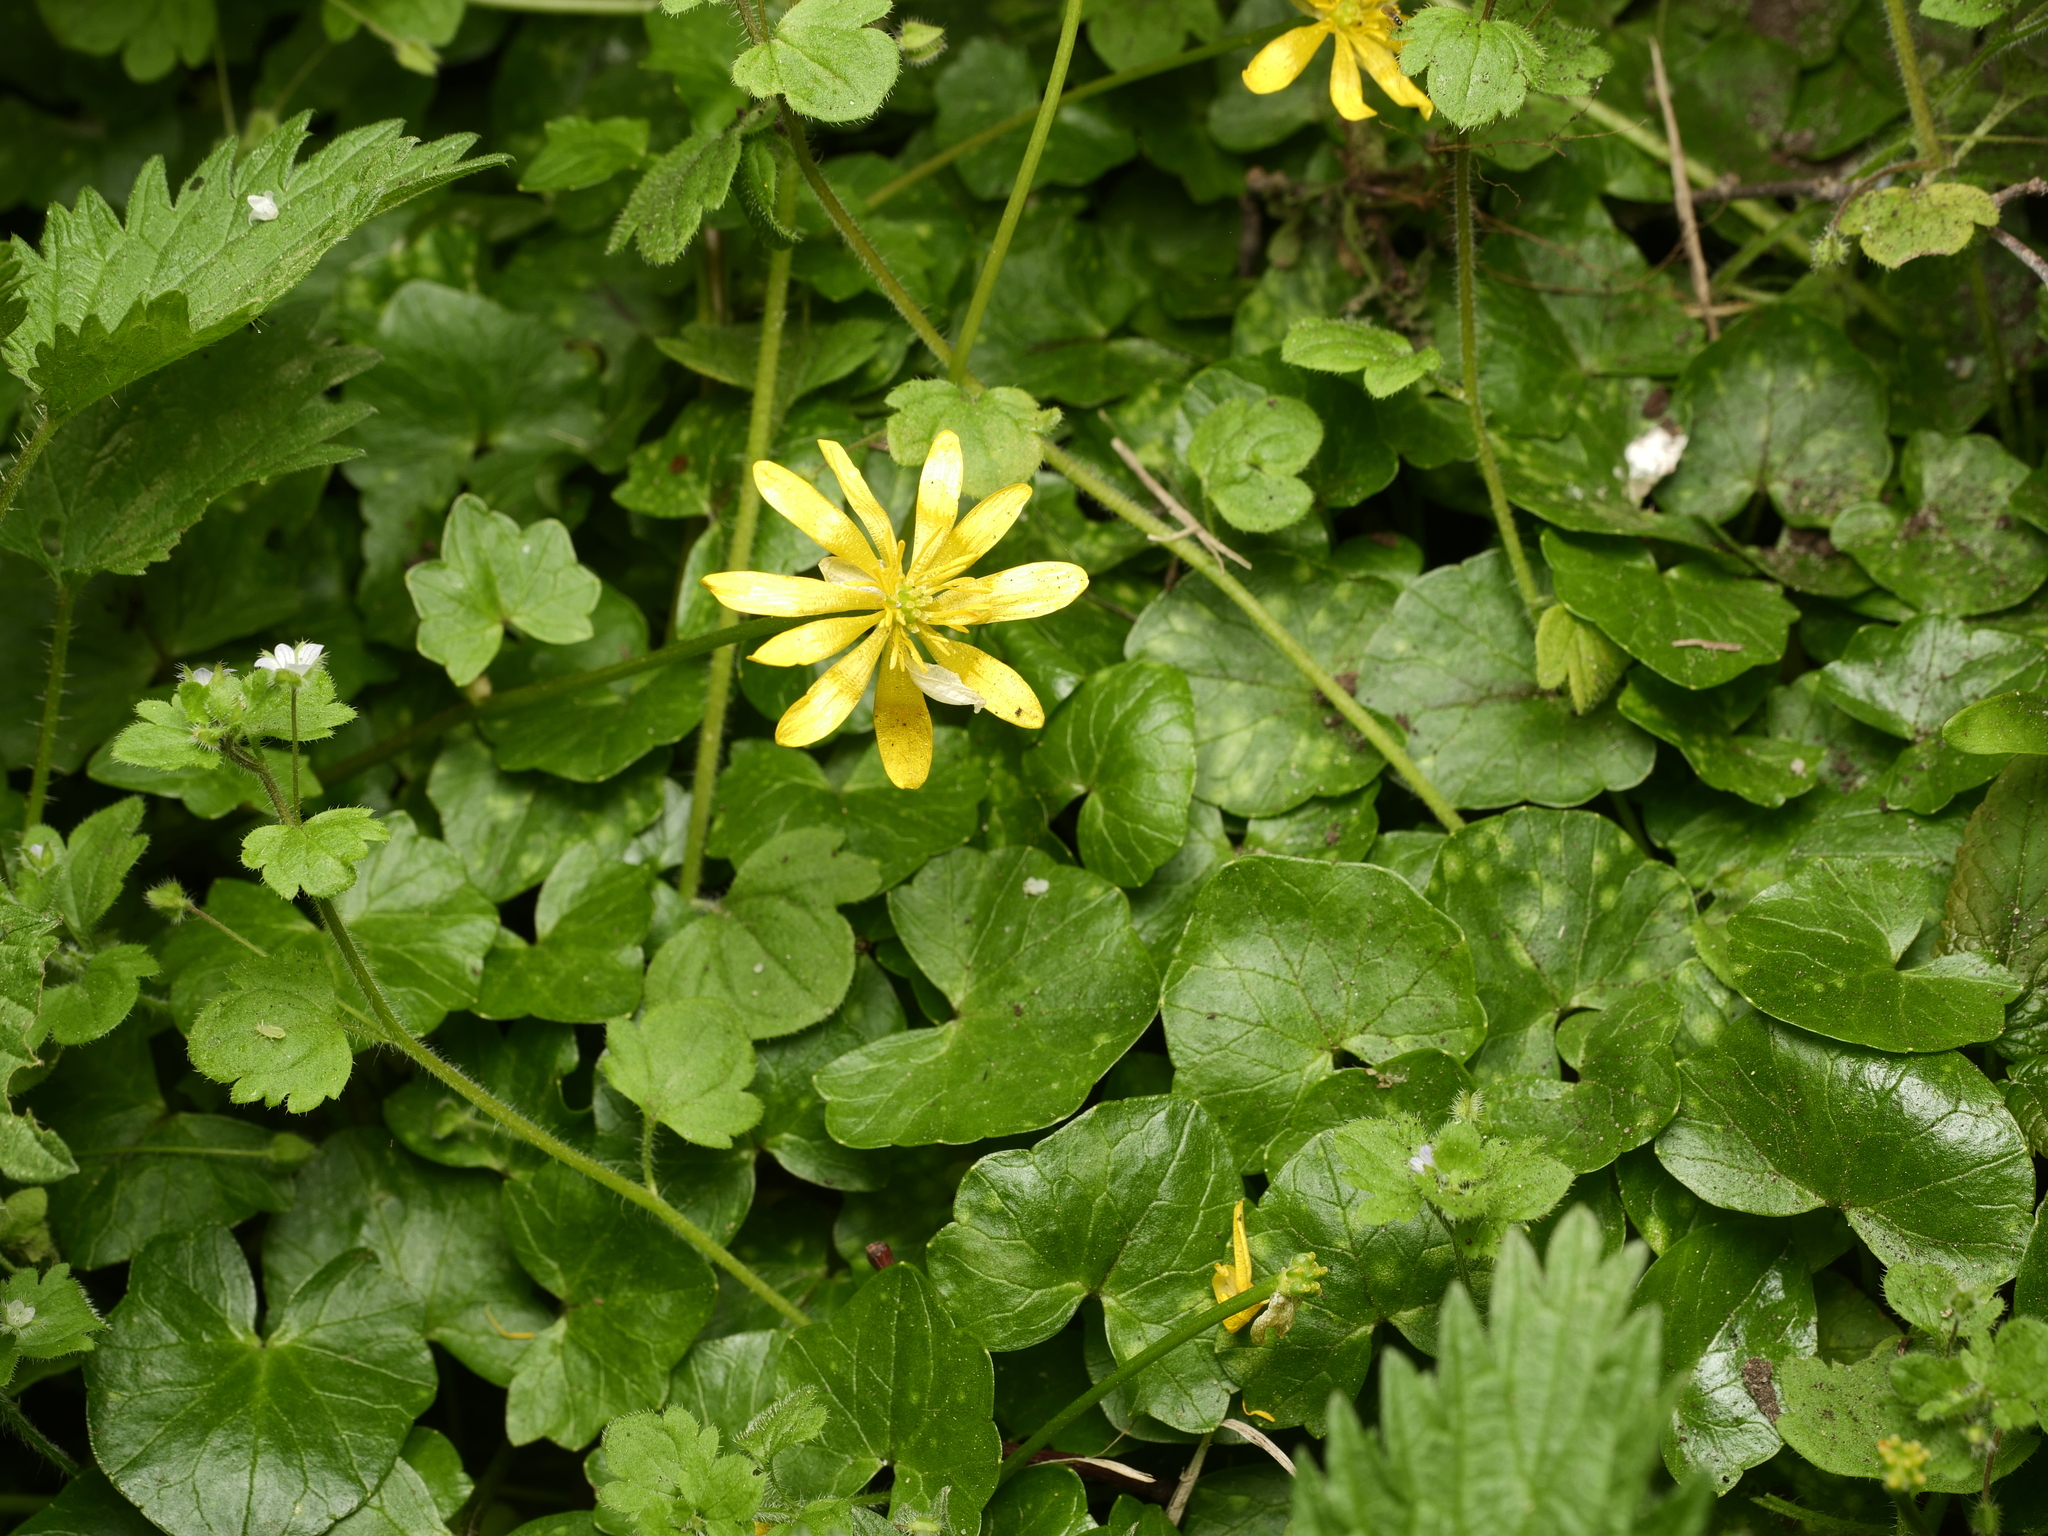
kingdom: Plantae
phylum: Tracheophyta
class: Magnoliopsida
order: Ranunculales
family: Ranunculaceae
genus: Ficaria
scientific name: Ficaria verna
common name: Lesser celandine
